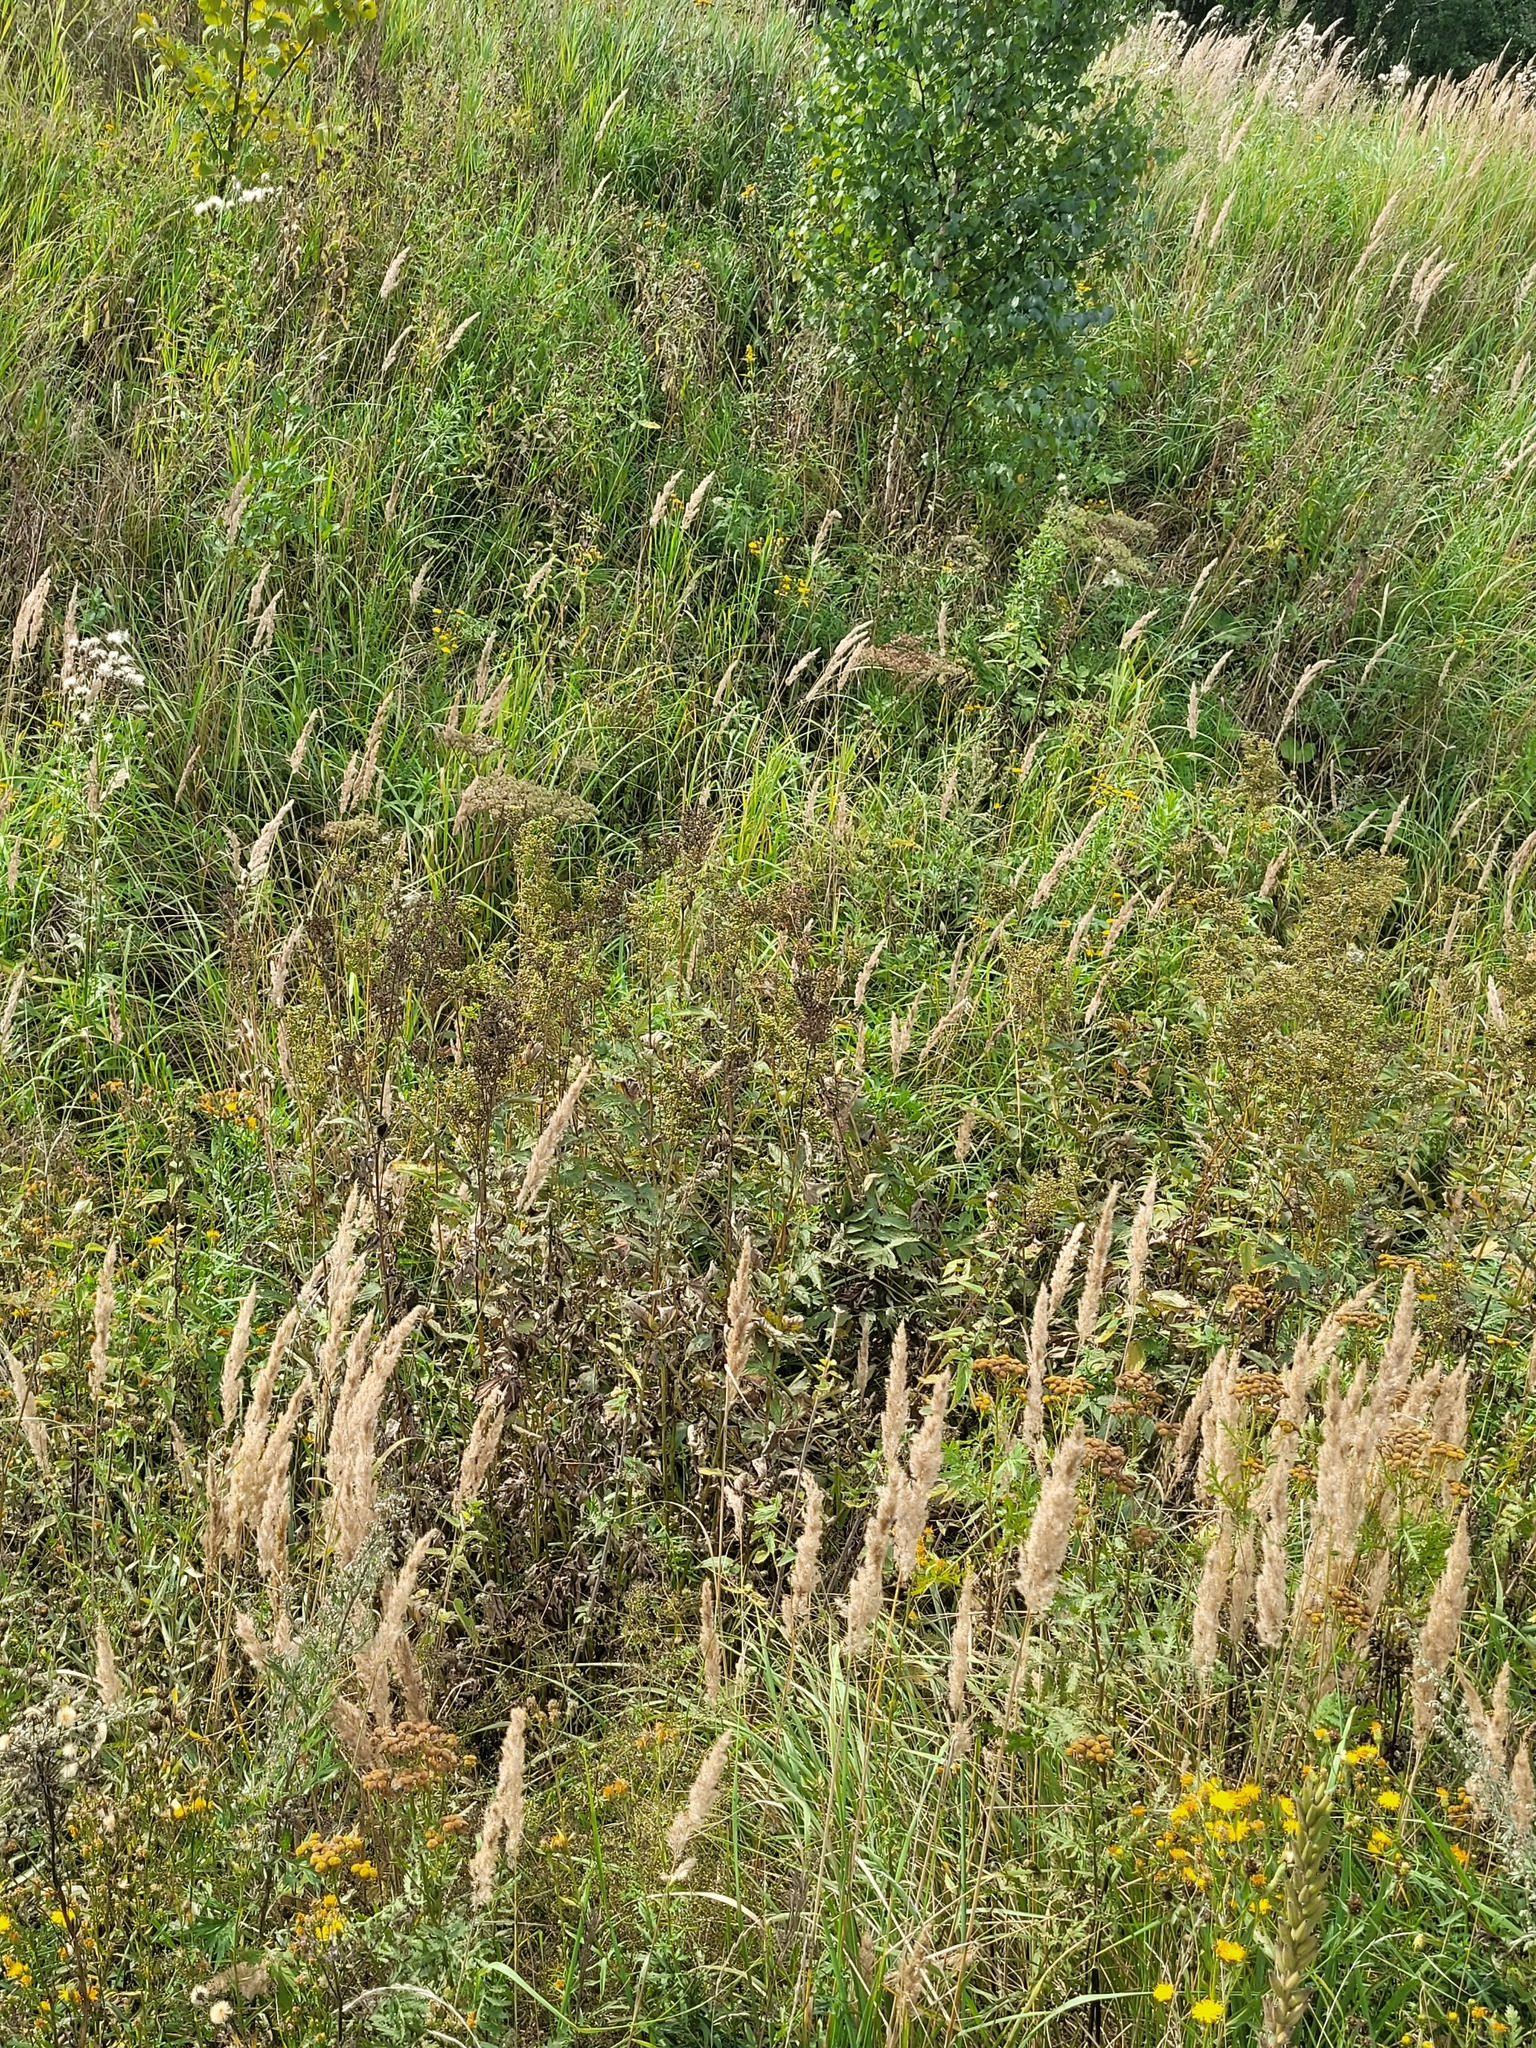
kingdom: Plantae
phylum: Tracheophyta
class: Magnoliopsida
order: Rosales
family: Rosaceae
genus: Filipendula
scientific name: Filipendula ulmaria
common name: Meadowsweet
